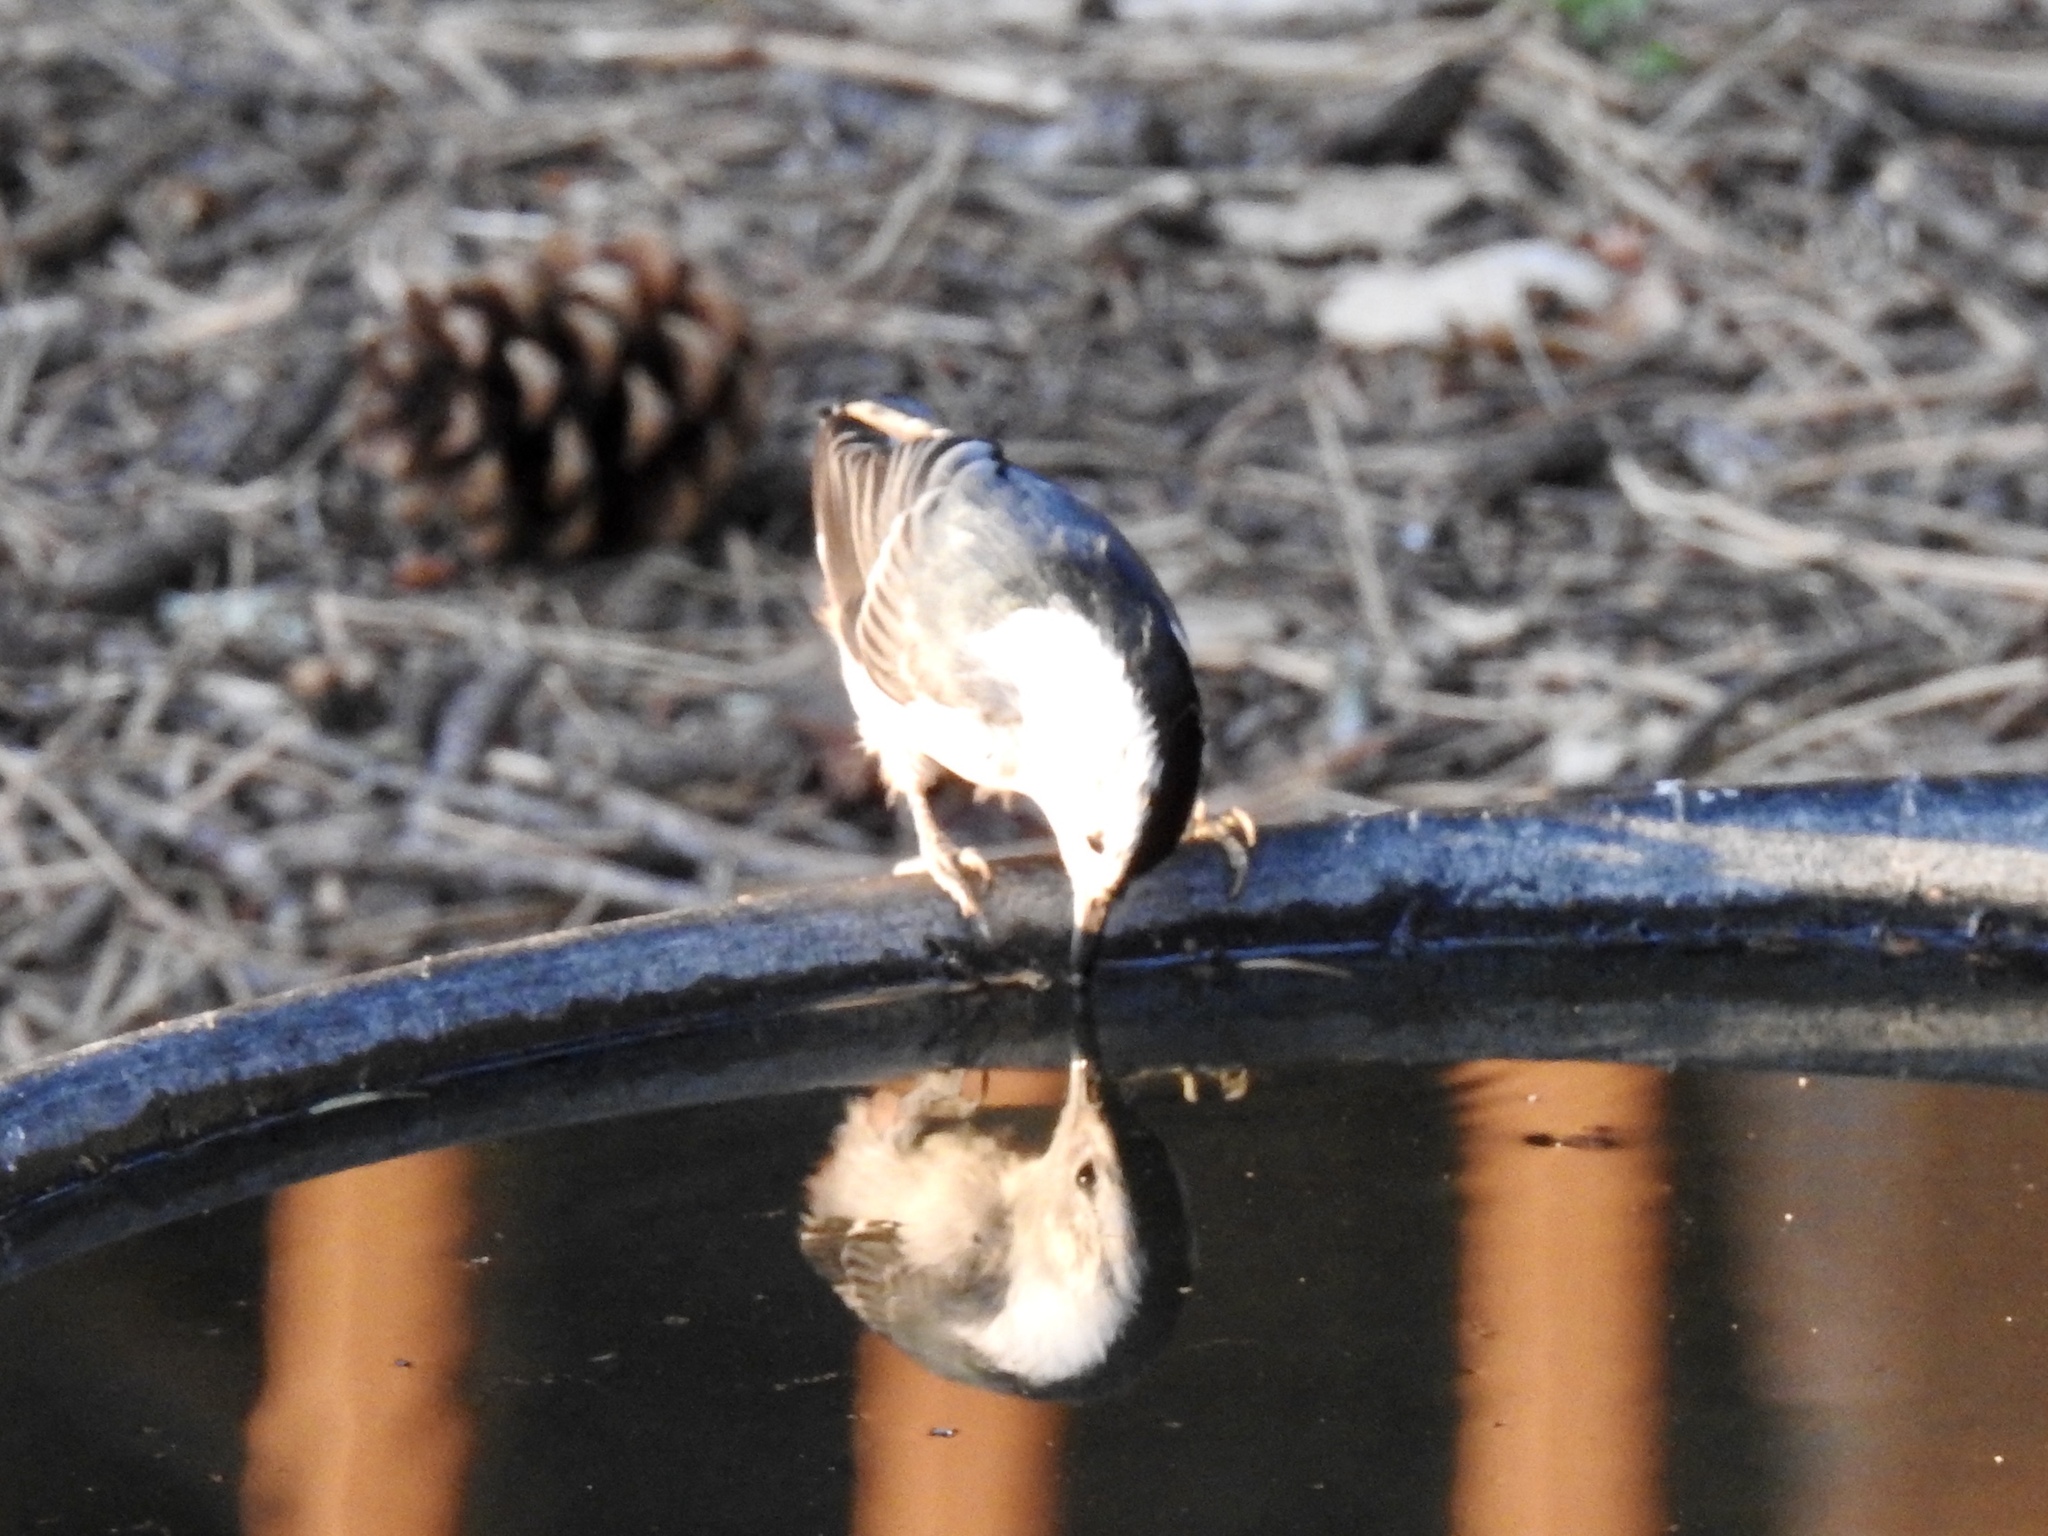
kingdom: Animalia
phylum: Chordata
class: Aves
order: Passeriformes
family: Sittidae
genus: Sitta
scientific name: Sitta carolinensis
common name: White-breasted nuthatch
